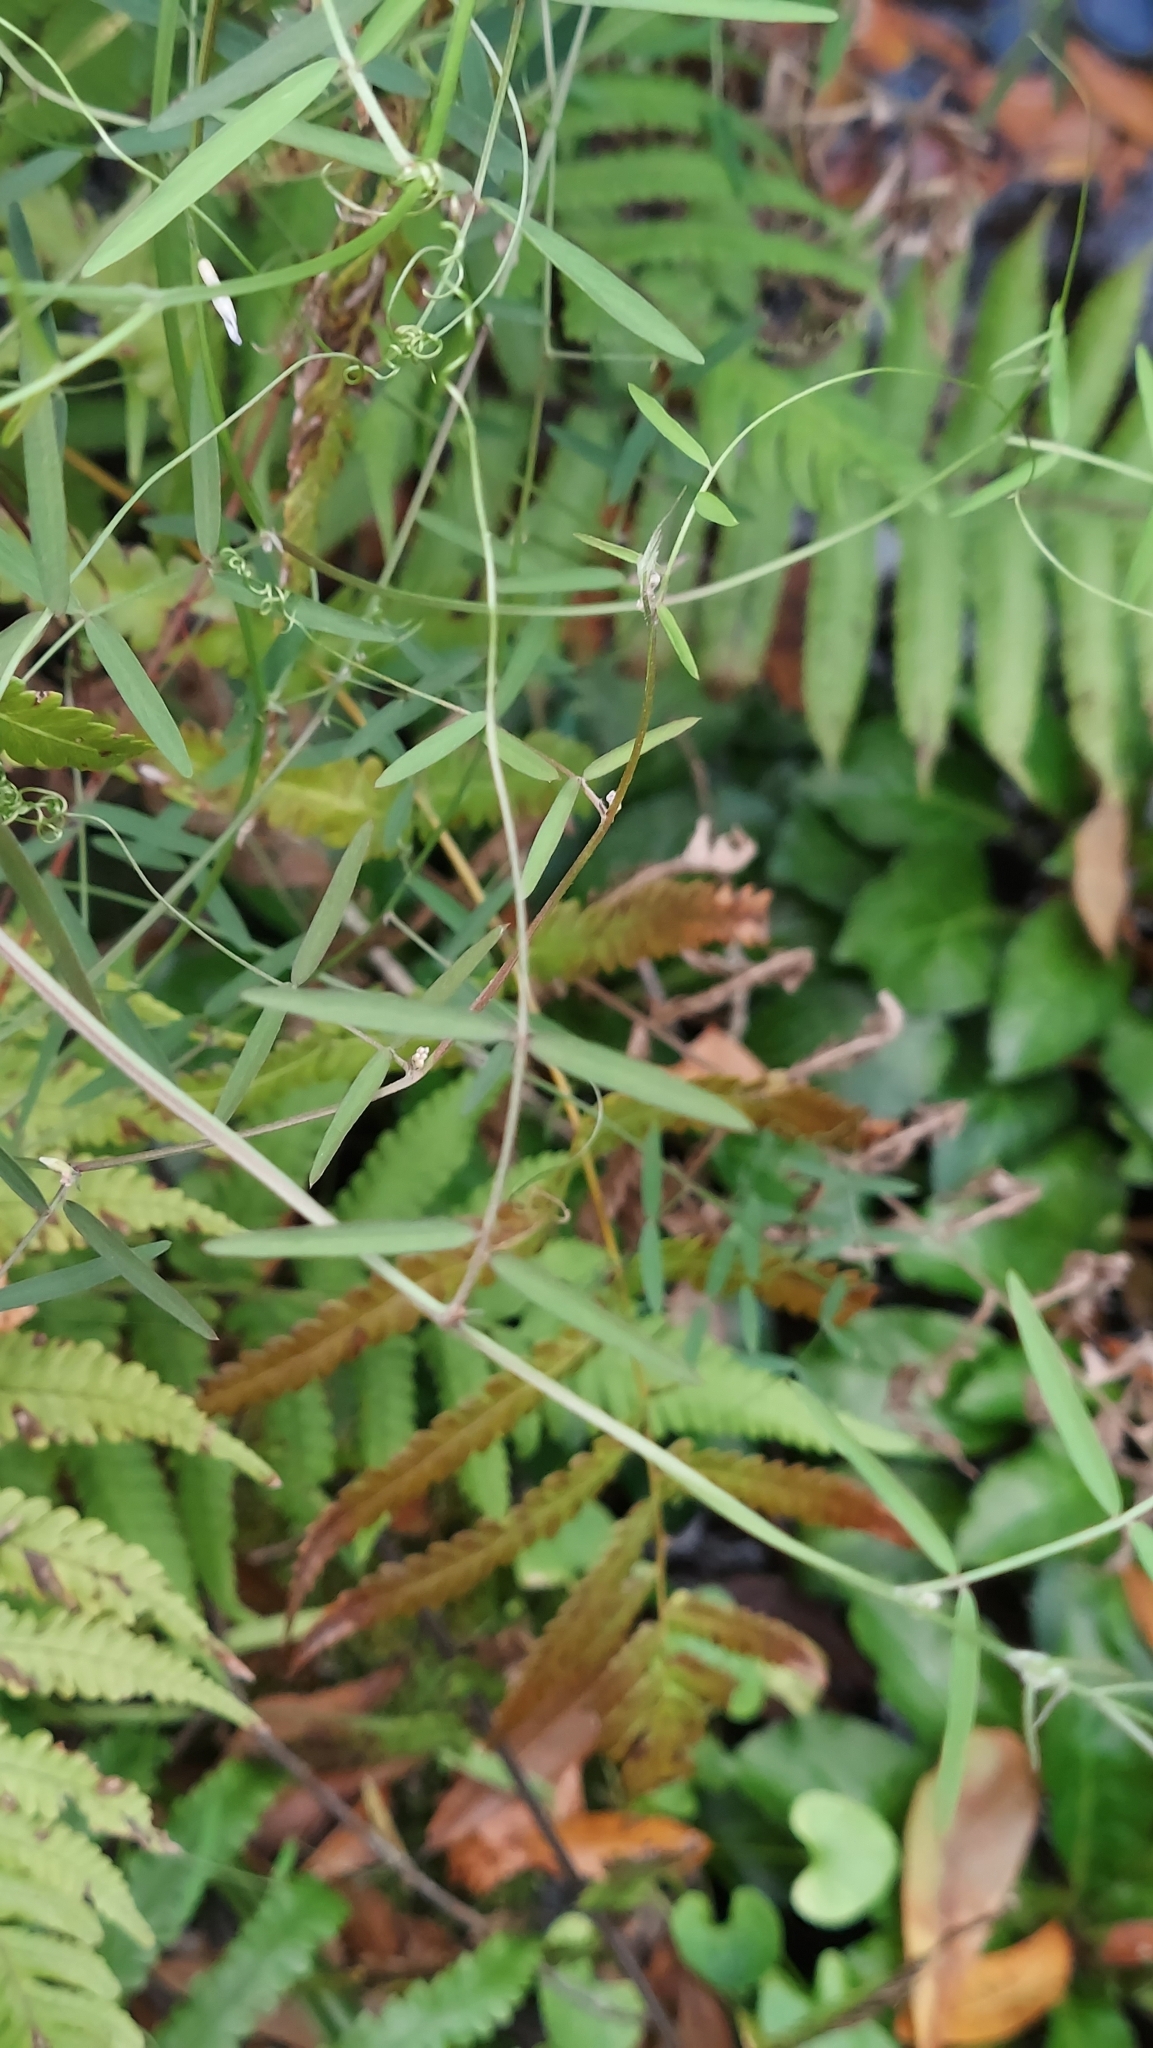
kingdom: Plantae
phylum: Tracheophyta
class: Magnoliopsida
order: Fabales
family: Fabaceae
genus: Vicia
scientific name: Vicia acutifolia
